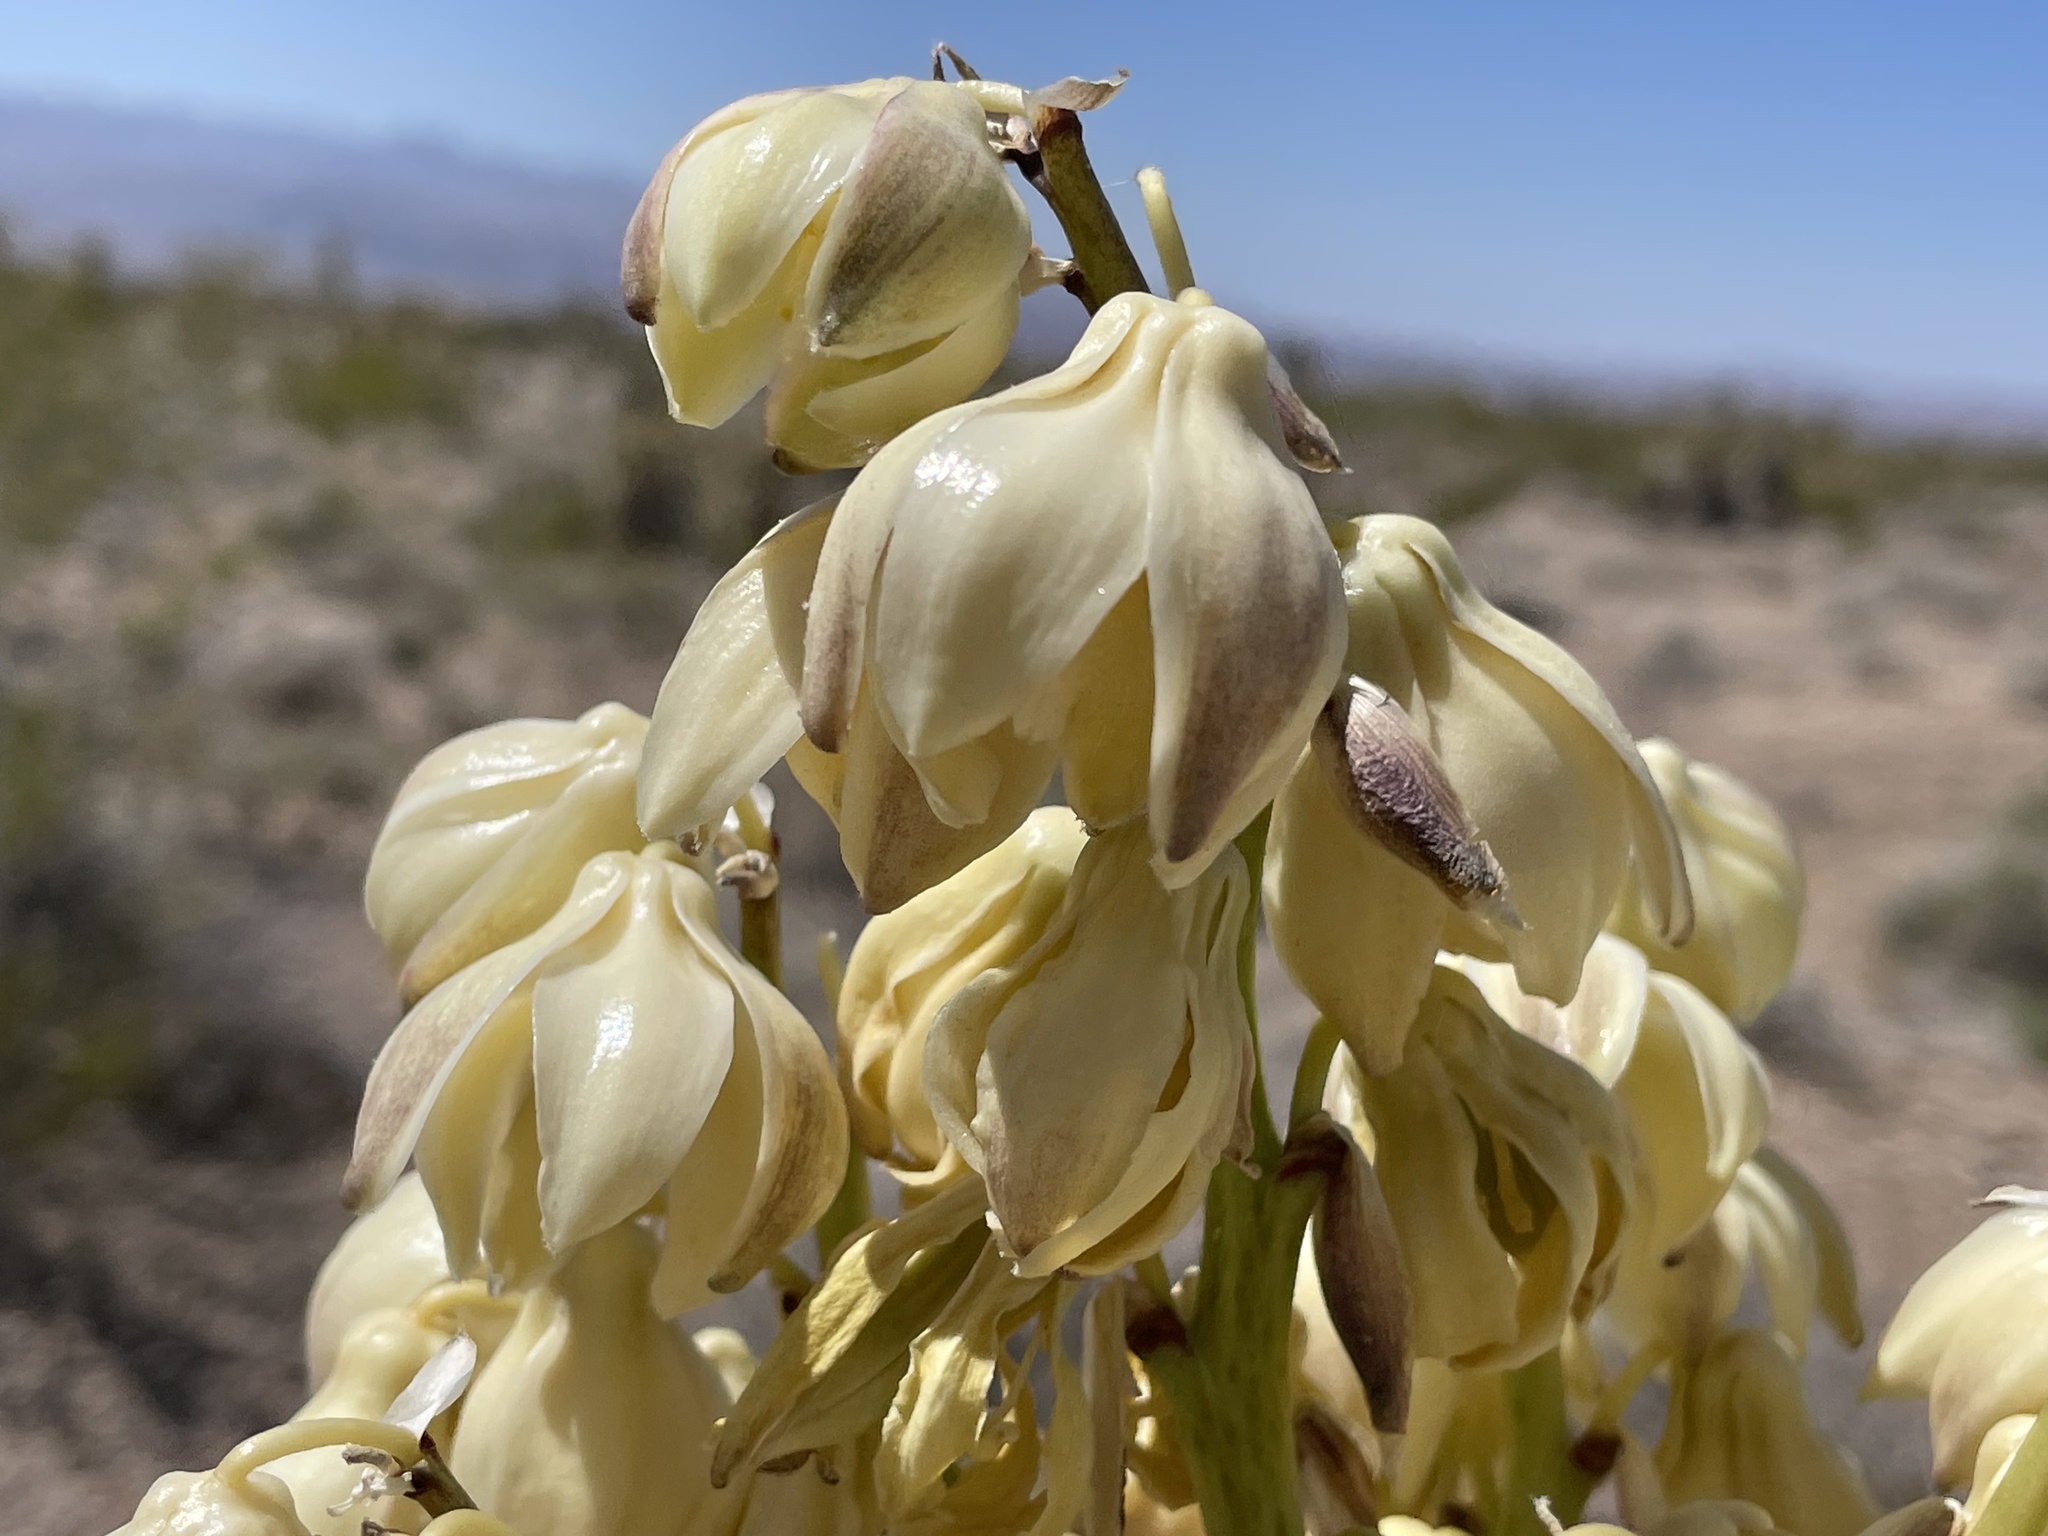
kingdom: Plantae
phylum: Tracheophyta
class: Liliopsida
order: Asparagales
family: Asparagaceae
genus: Yucca
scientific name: Yucca schidigera
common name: Mojave yucca
